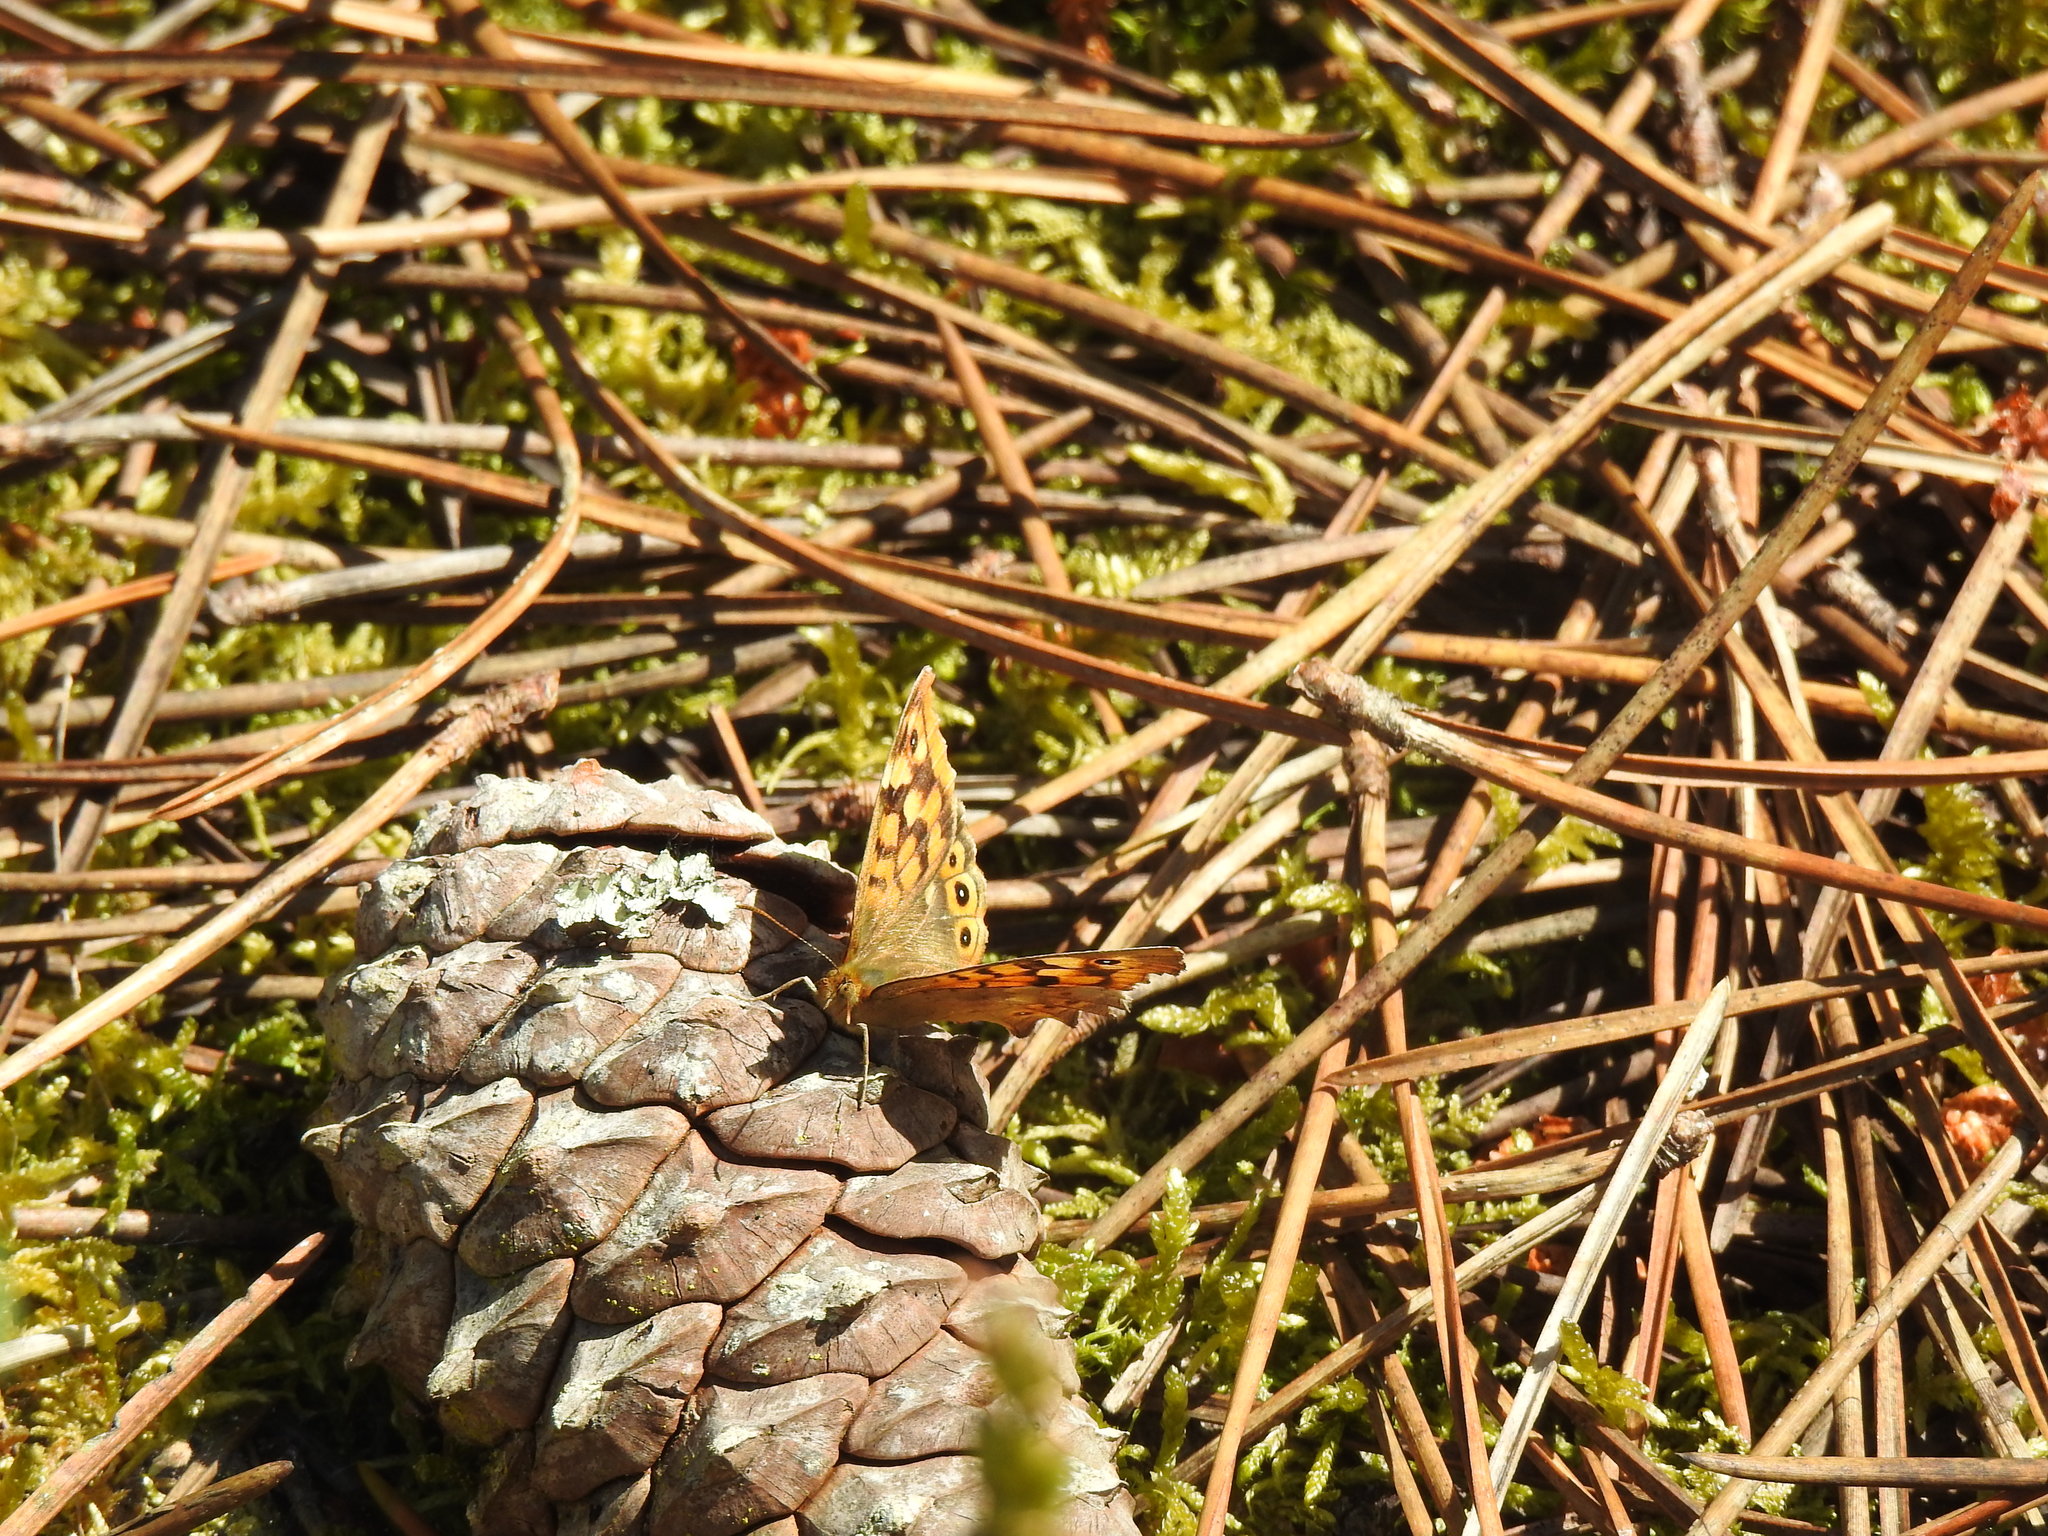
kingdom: Animalia
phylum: Arthropoda
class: Insecta
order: Lepidoptera
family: Nymphalidae
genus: Pararge
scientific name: Pararge aegeria
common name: Speckled wood
